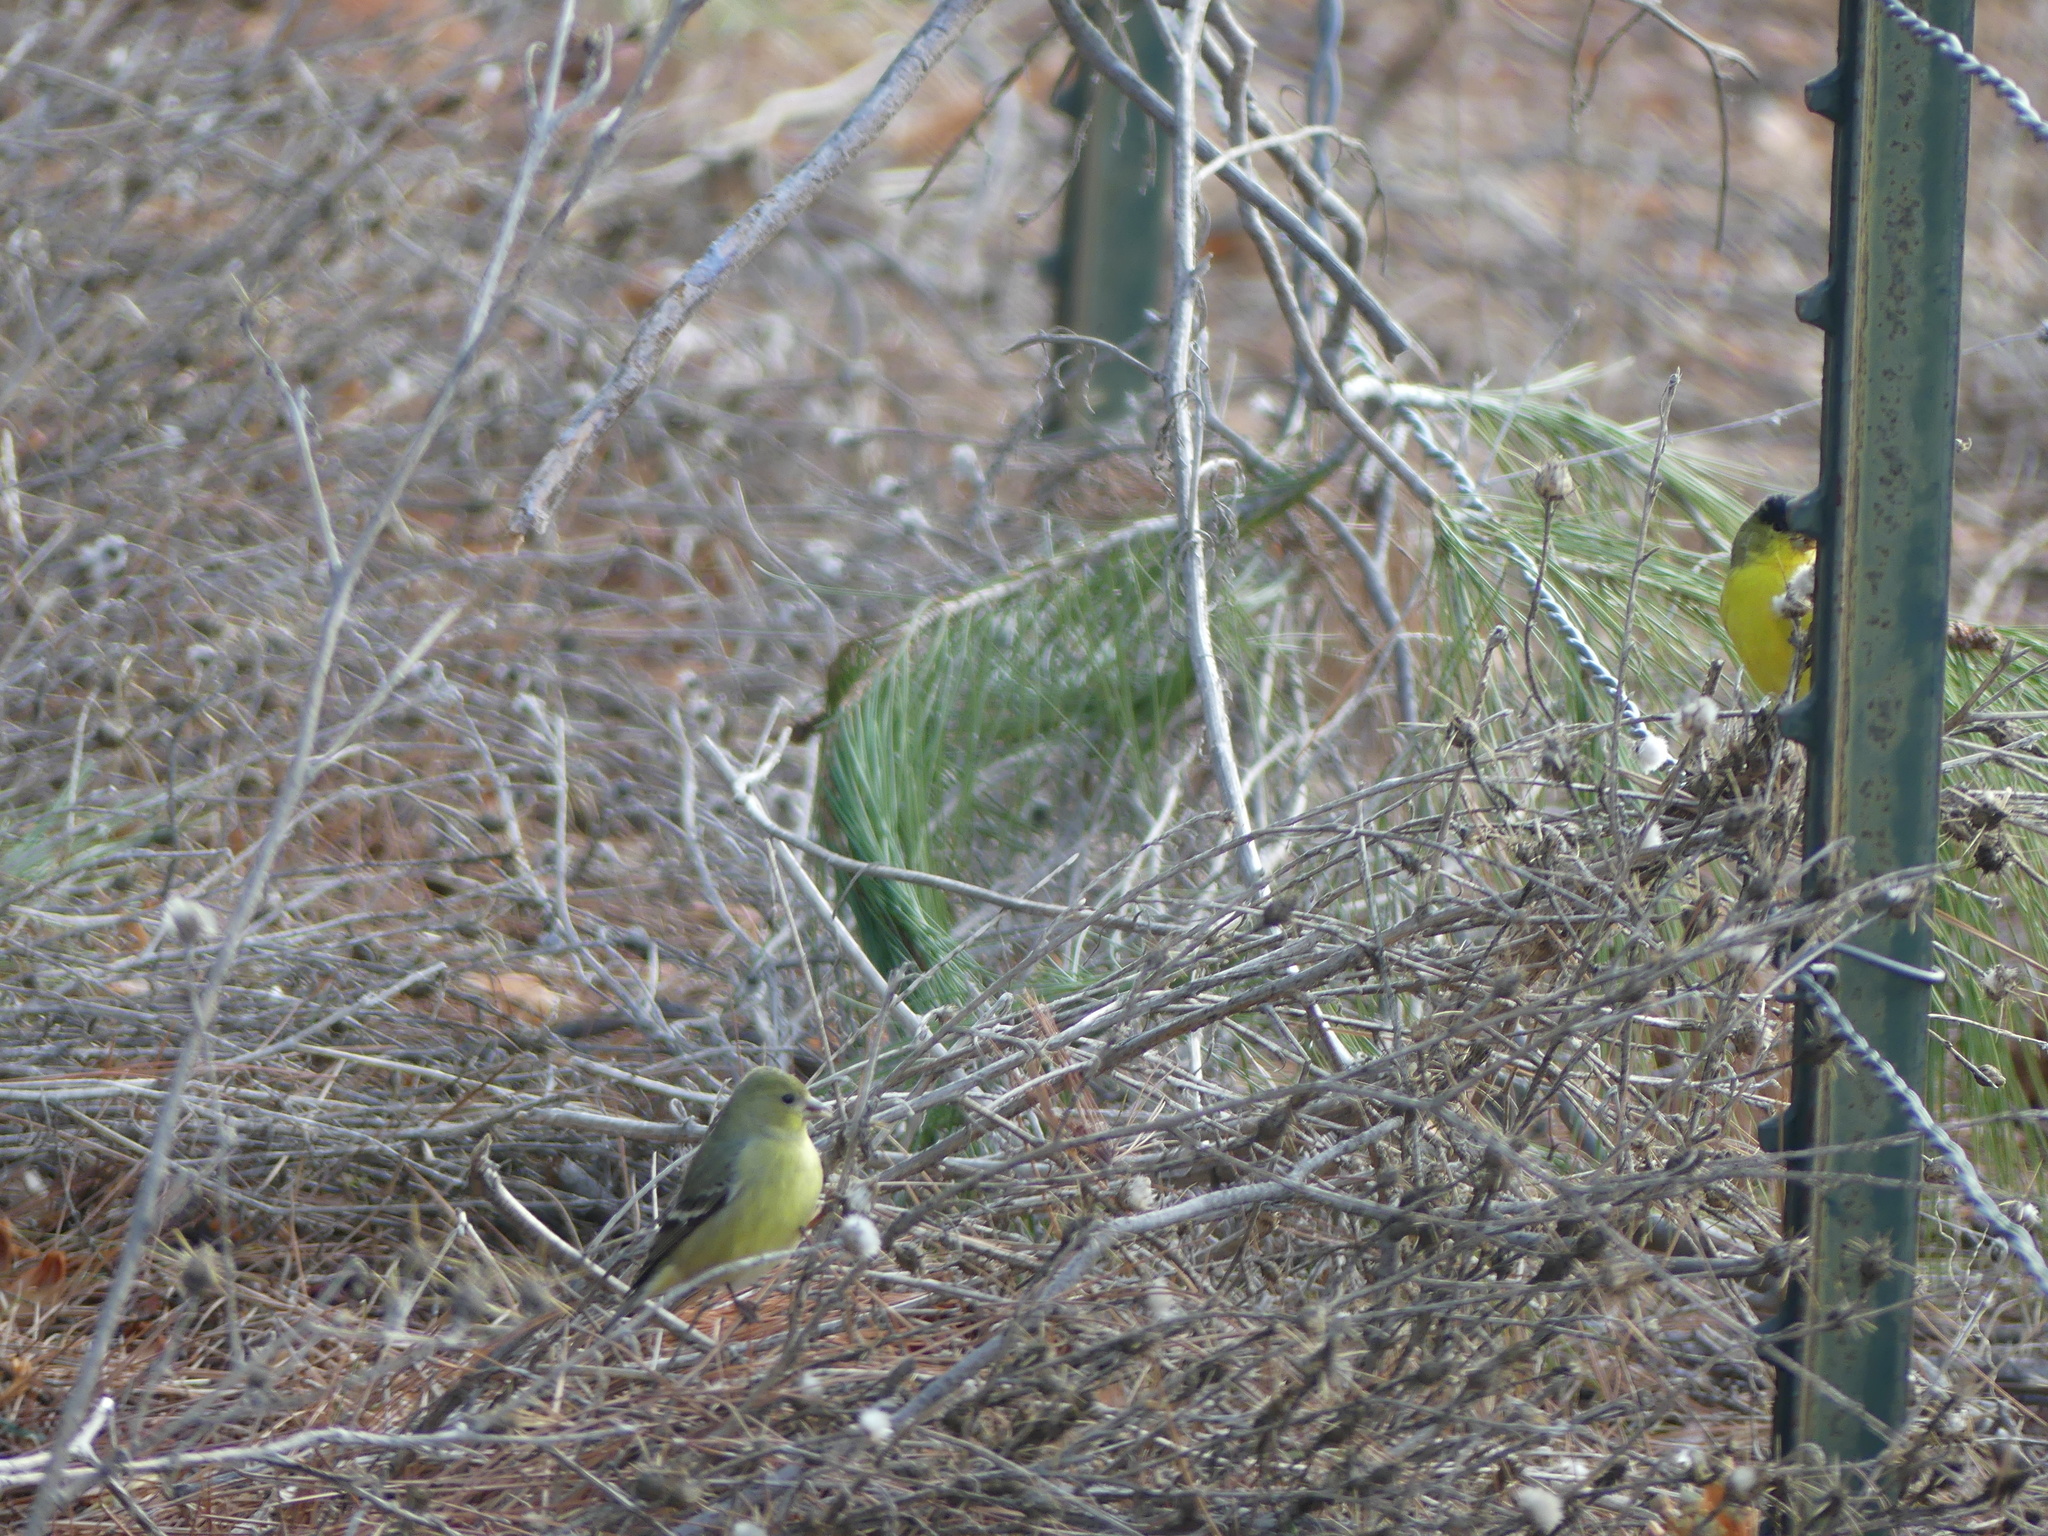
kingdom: Animalia
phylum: Chordata
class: Aves
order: Passeriformes
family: Fringillidae
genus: Spinus
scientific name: Spinus psaltria
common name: Lesser goldfinch
